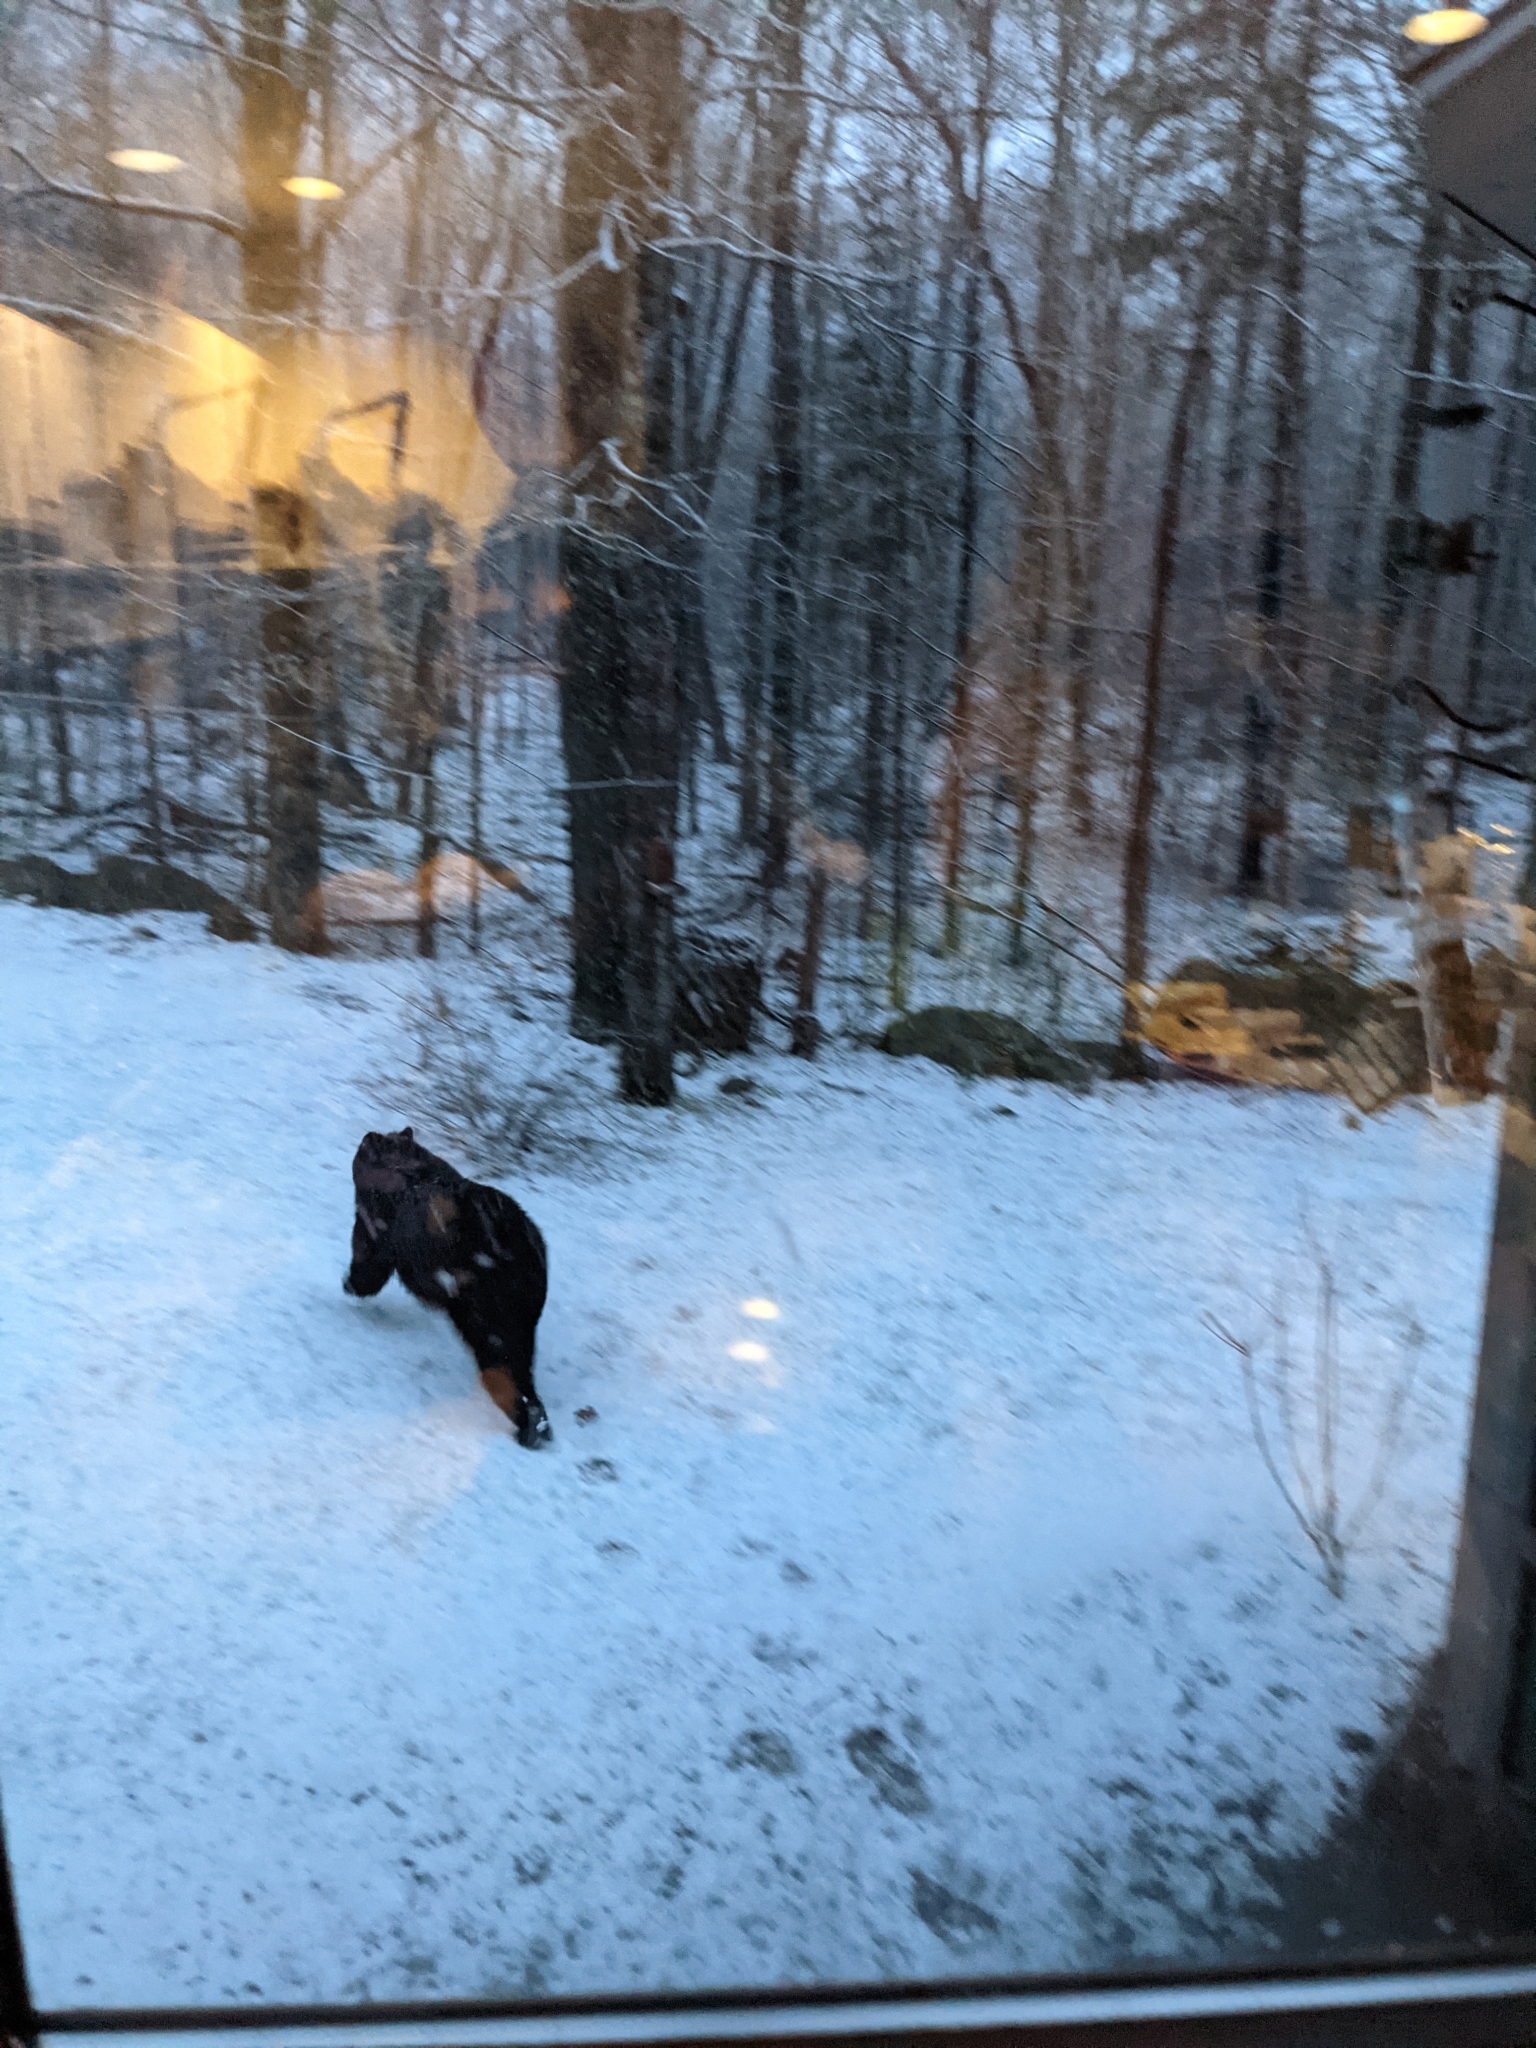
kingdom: Animalia
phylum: Chordata
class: Mammalia
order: Carnivora
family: Ursidae
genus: Ursus
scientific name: Ursus americanus
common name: American black bear
